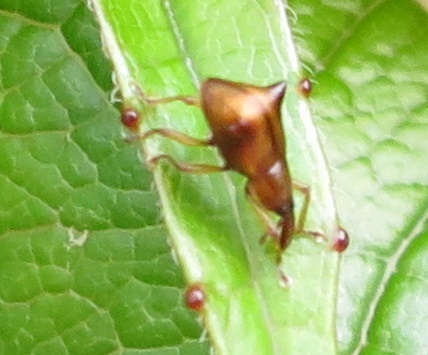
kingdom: Animalia
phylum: Arthropoda
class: Insecta
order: Coleoptera
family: Curculionidae
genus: Oropterus
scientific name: Oropterus coniger
